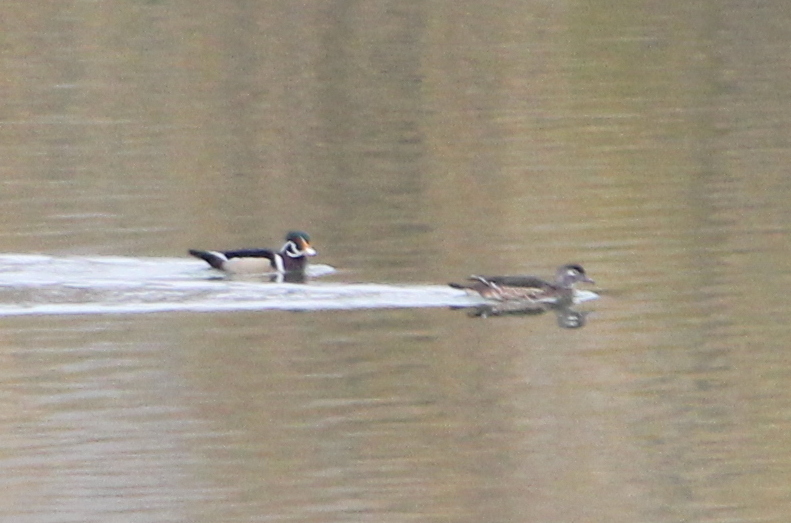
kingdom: Animalia
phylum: Chordata
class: Aves
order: Anseriformes
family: Anatidae
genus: Aix
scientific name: Aix sponsa
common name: Wood duck
